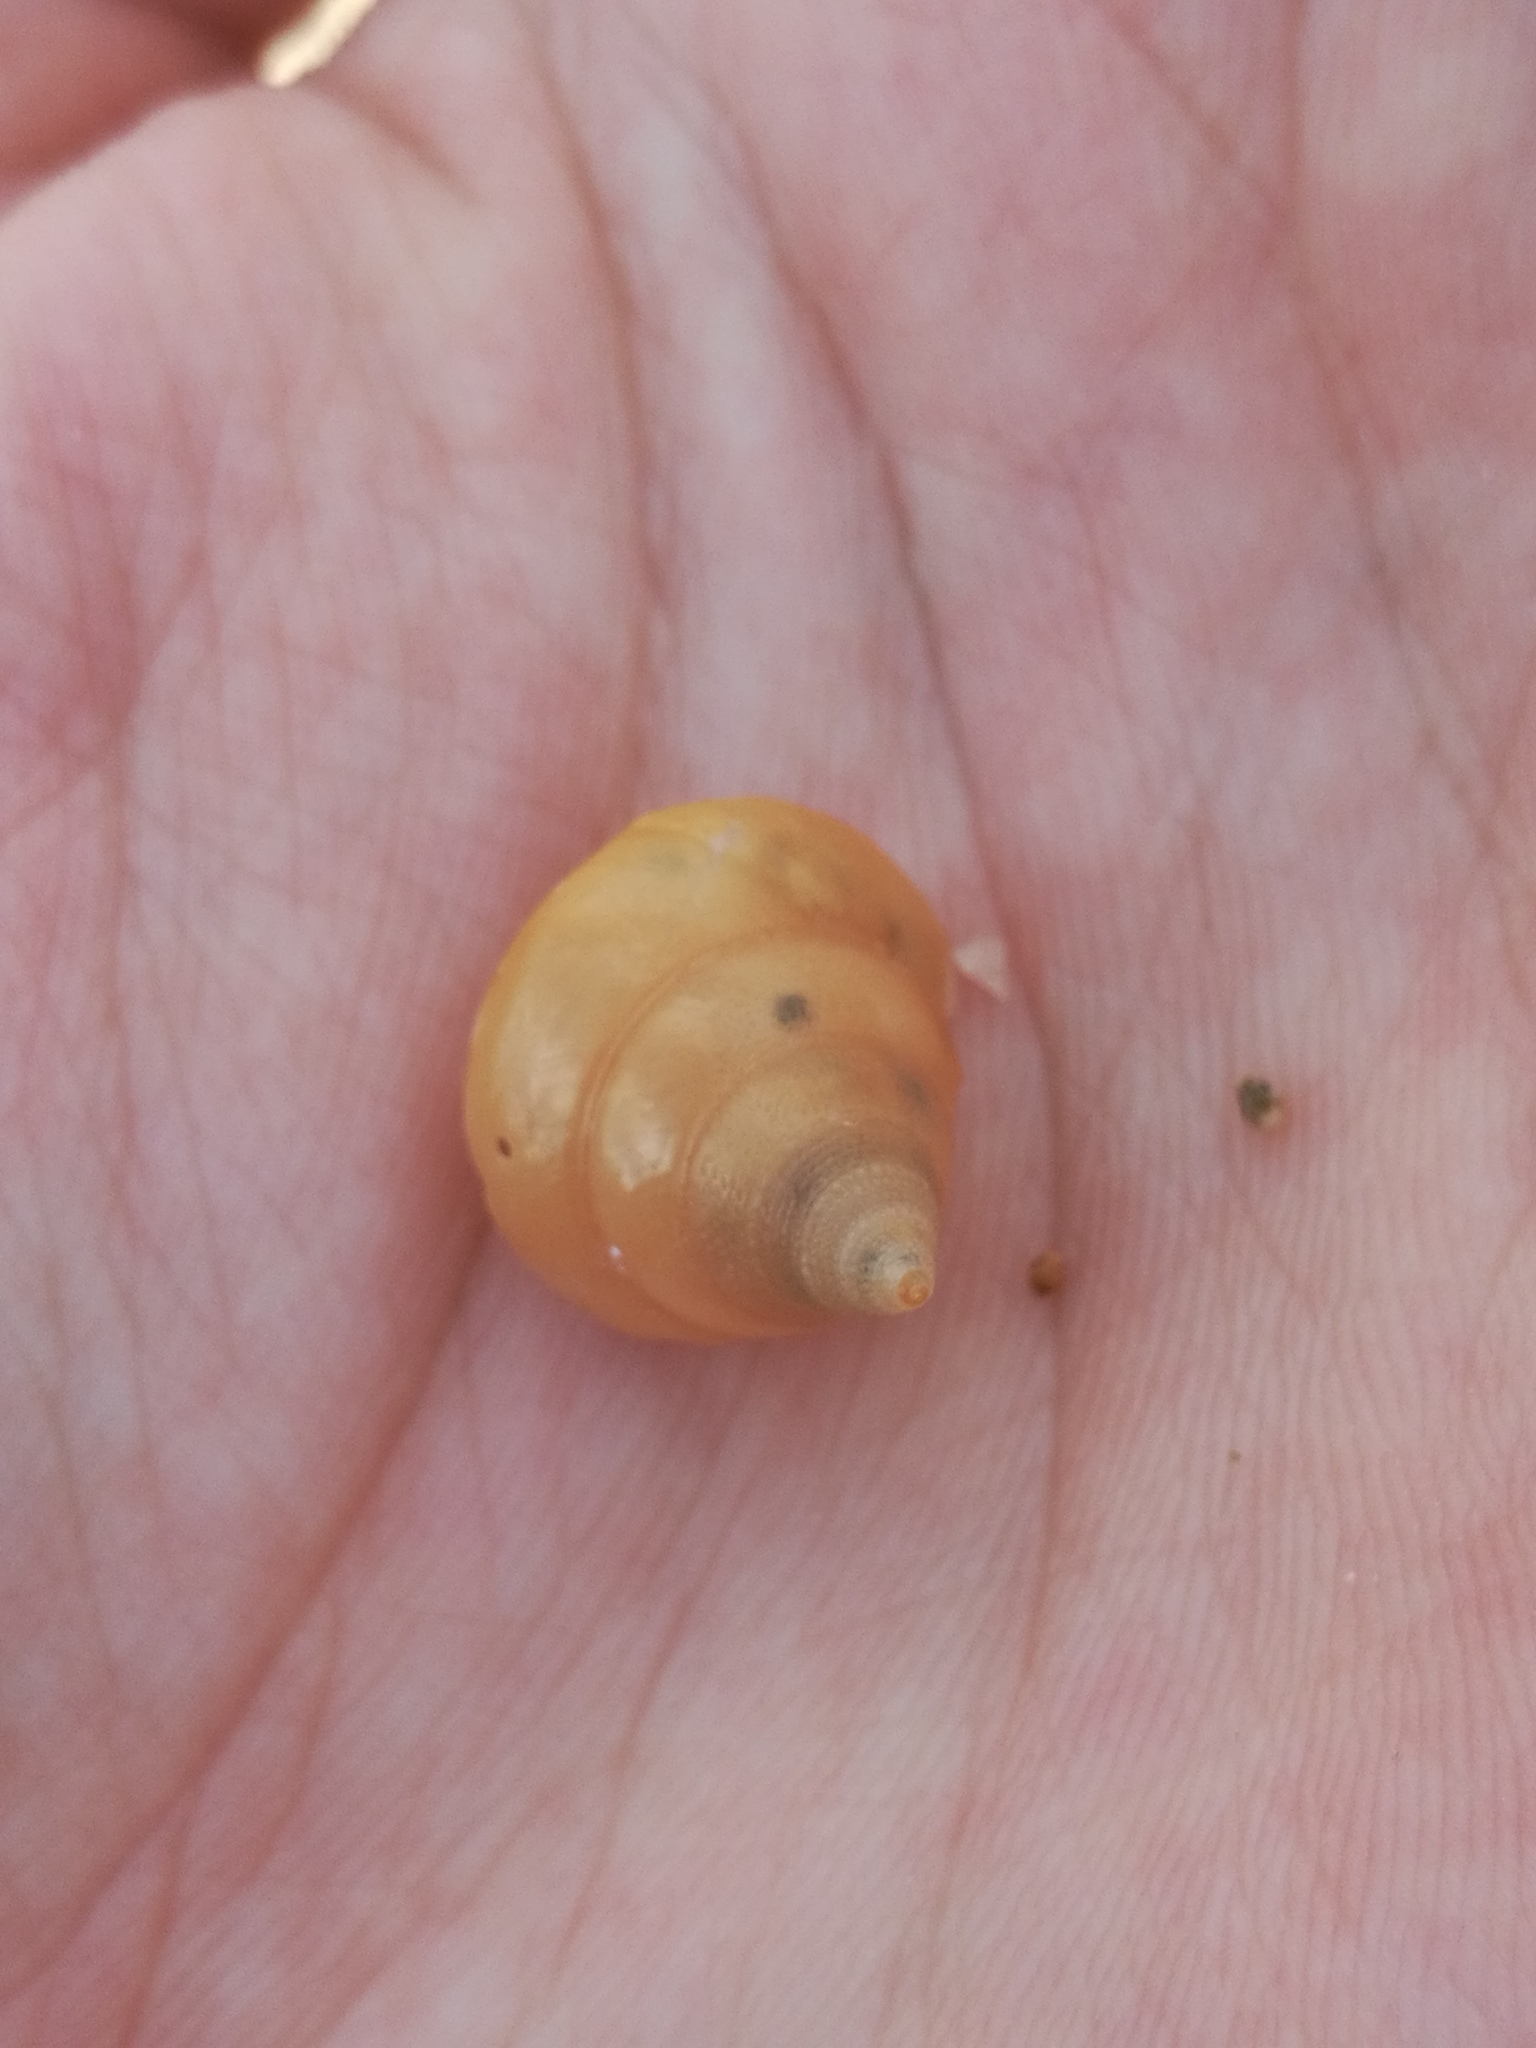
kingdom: Animalia
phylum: Mollusca
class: Gastropoda
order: Trochida
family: Calliostomatidae
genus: Calliostoma
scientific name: Calliostoma conulus
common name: Rusty topsnail
